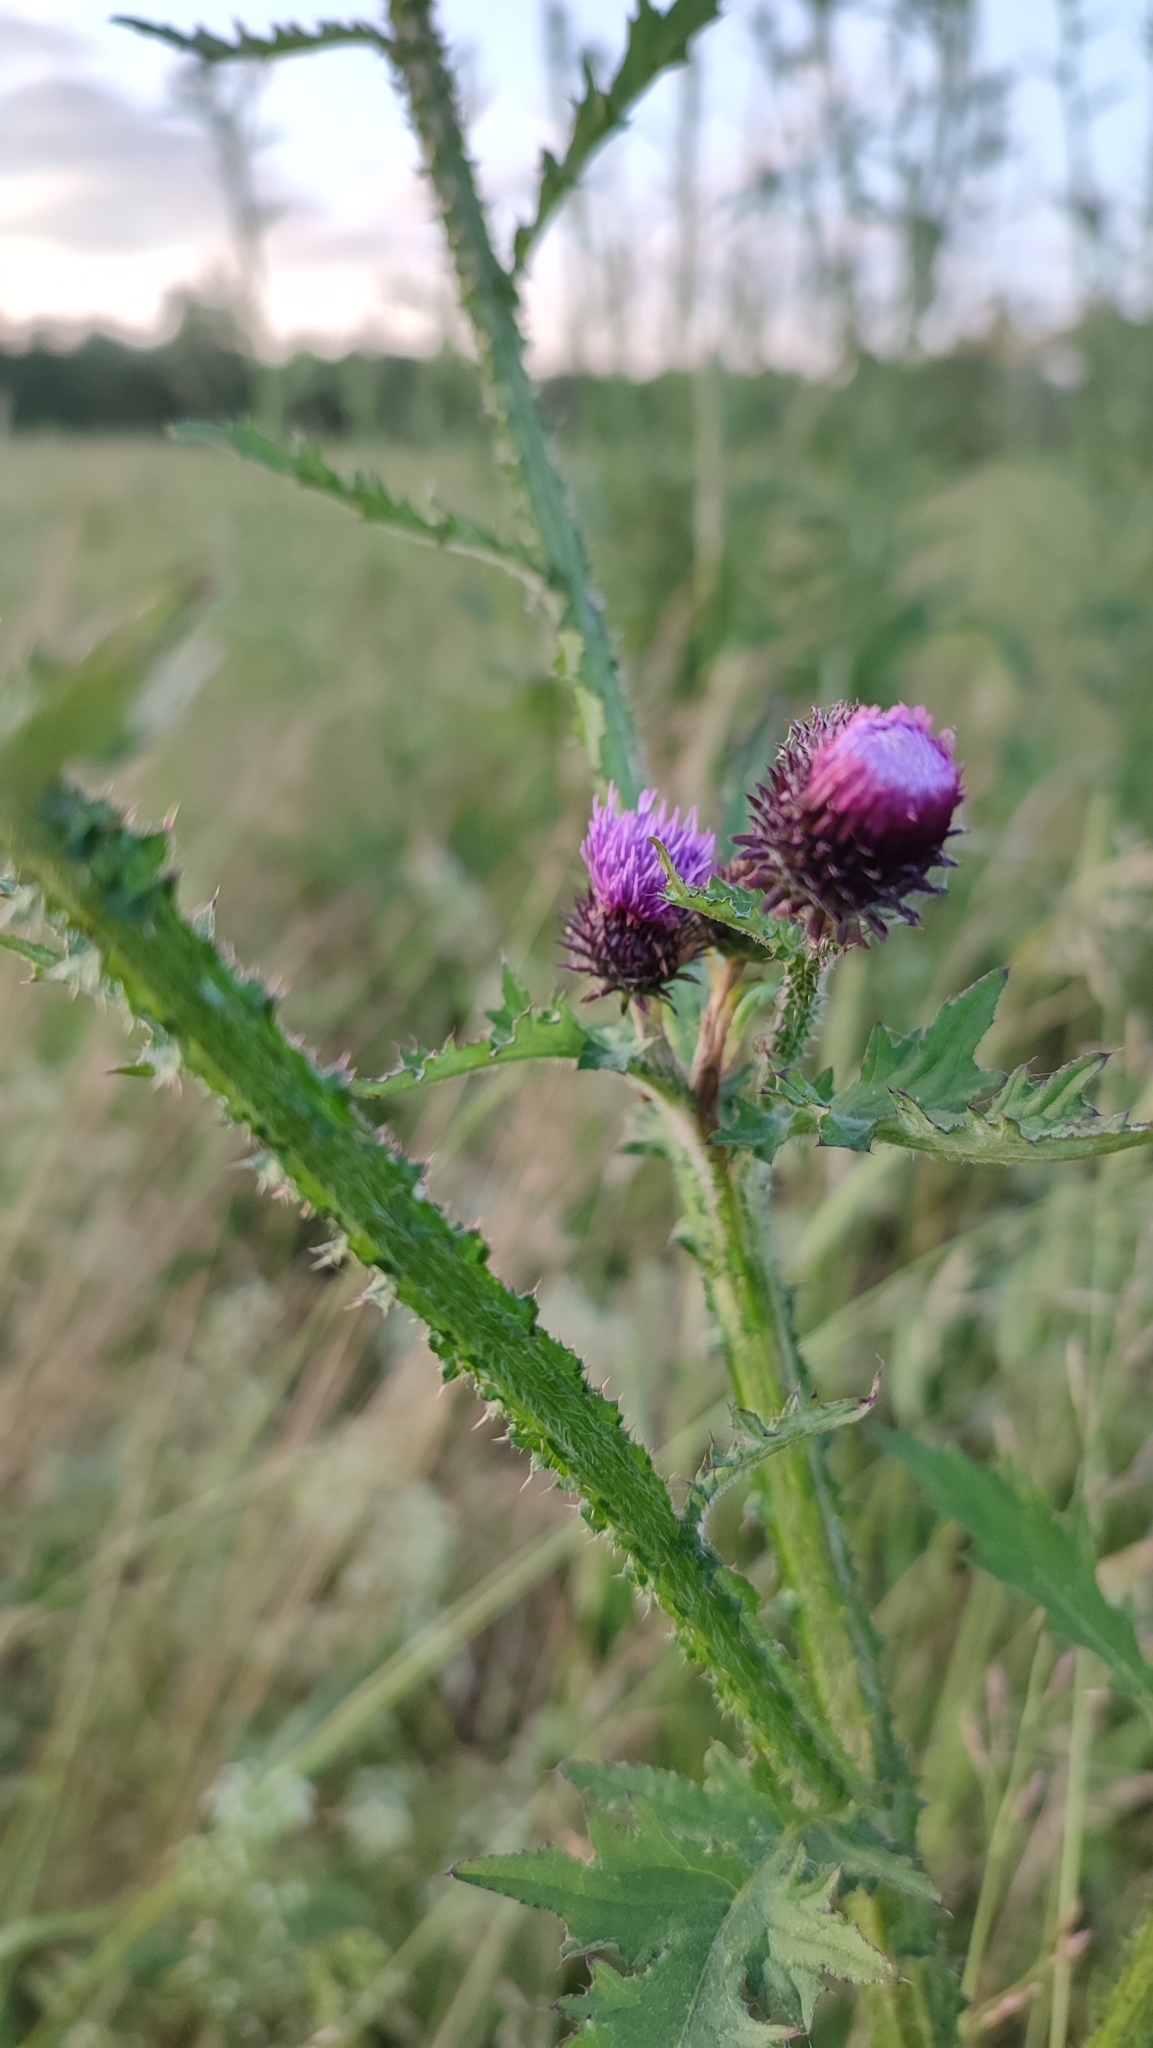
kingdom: Plantae
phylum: Tracheophyta
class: Magnoliopsida
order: Asterales
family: Asteraceae
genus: Carduus
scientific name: Carduus crispus
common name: Welted thistle
